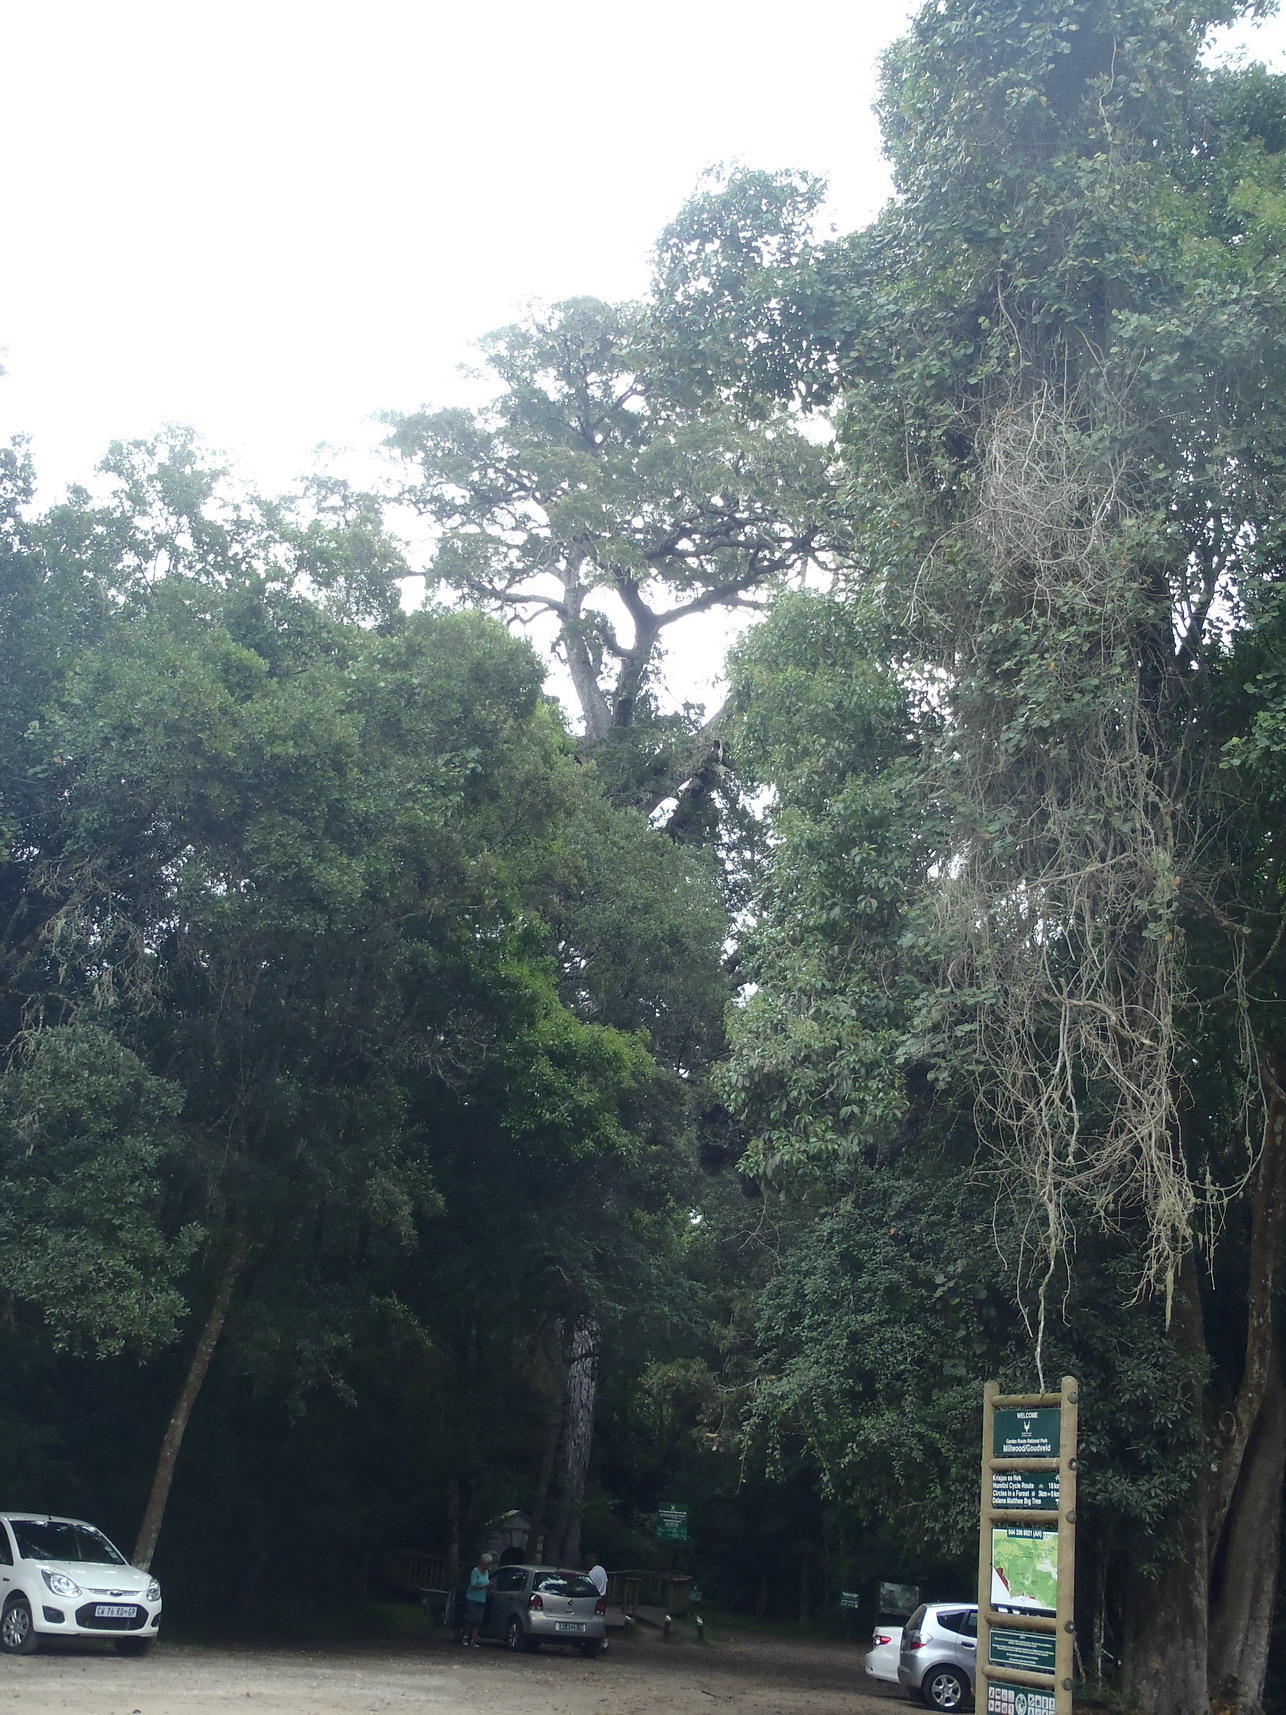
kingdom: Plantae
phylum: Tracheophyta
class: Pinopsida
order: Pinales
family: Podocarpaceae
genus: Afrocarpus
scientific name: Afrocarpus falcatus
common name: Bastard yellowwood
